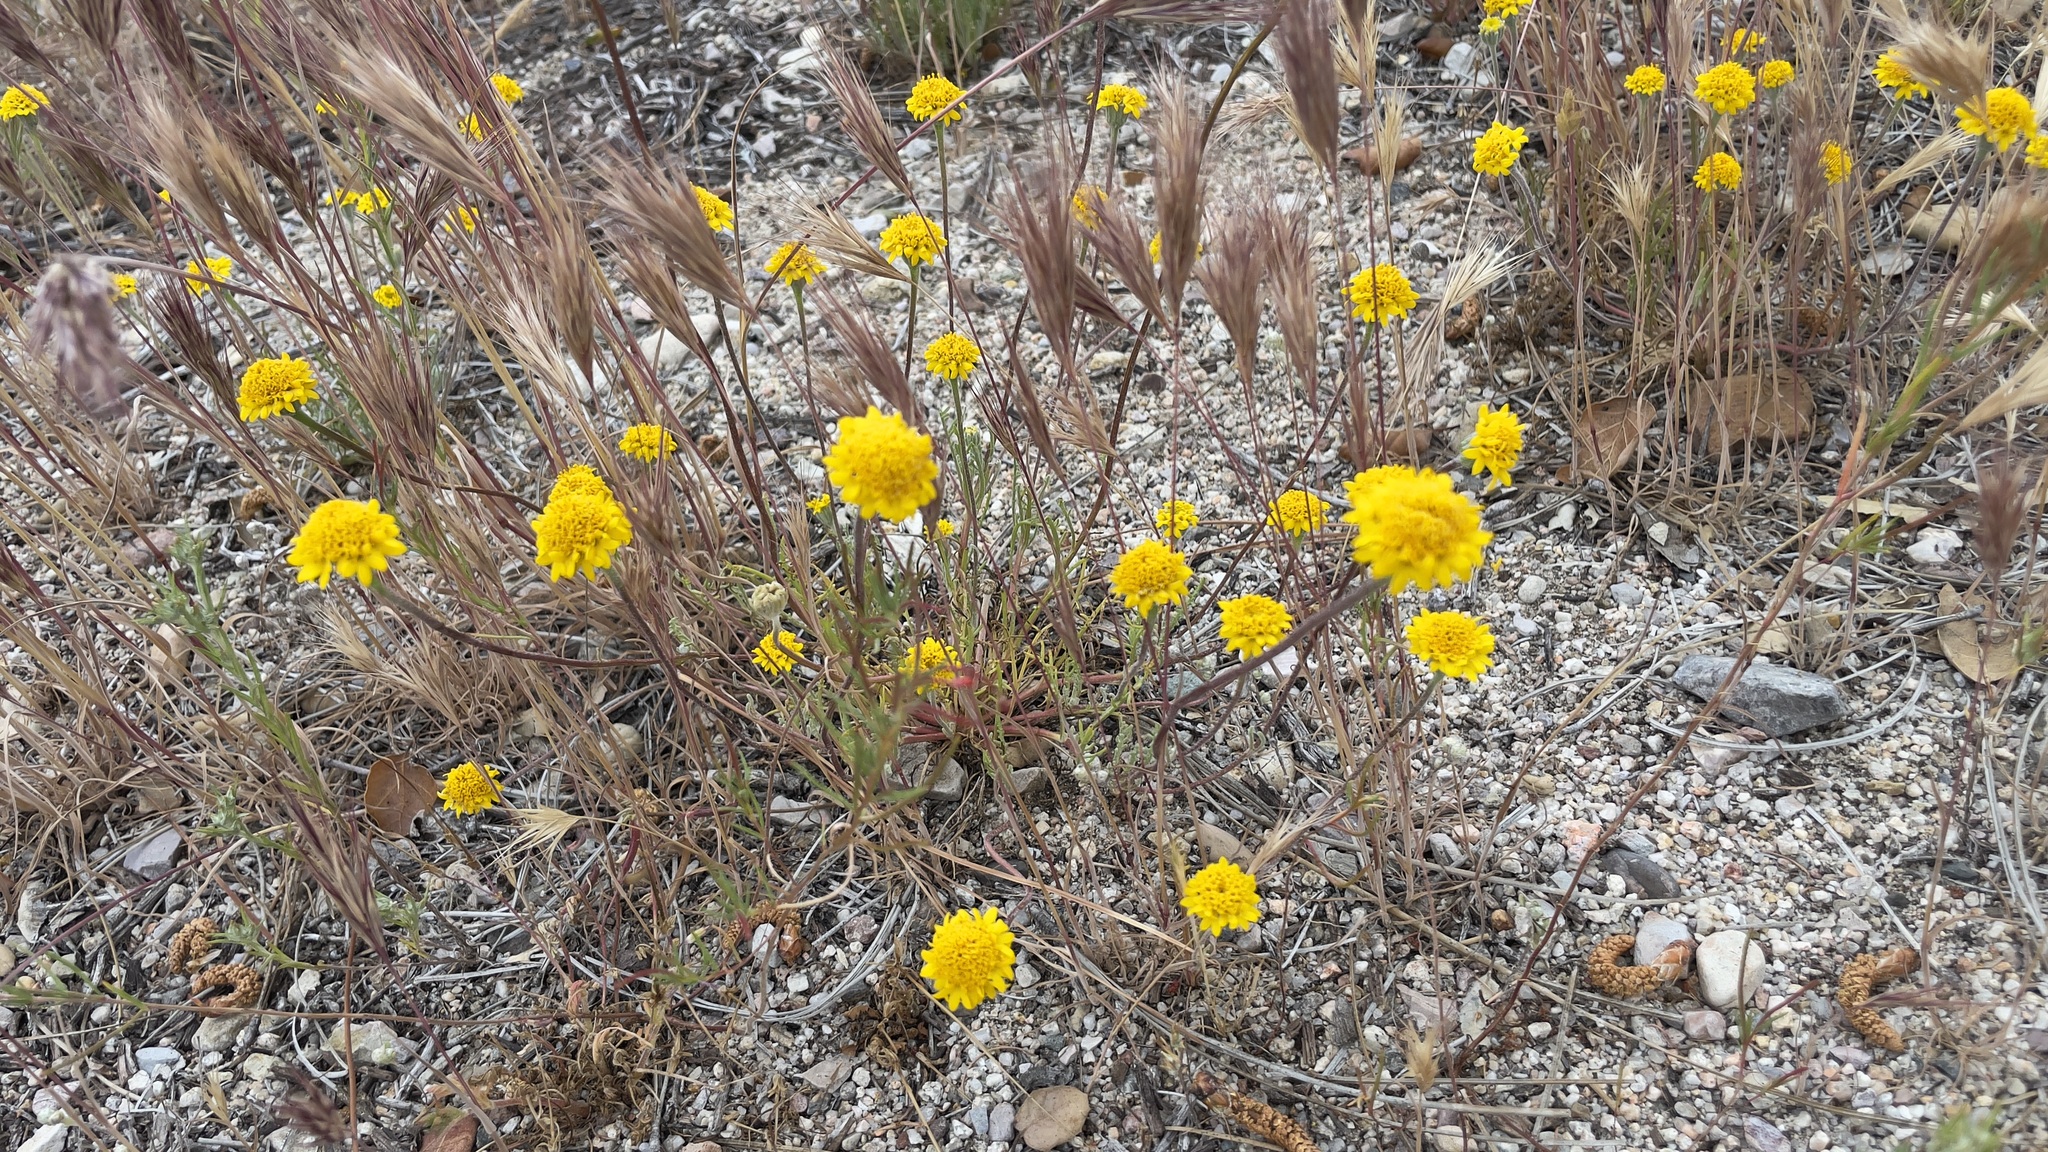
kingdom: Plantae
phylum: Tracheophyta
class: Magnoliopsida
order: Asterales
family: Asteraceae
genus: Chaenactis
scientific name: Chaenactis glabriuscula
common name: Yellow pincushion
